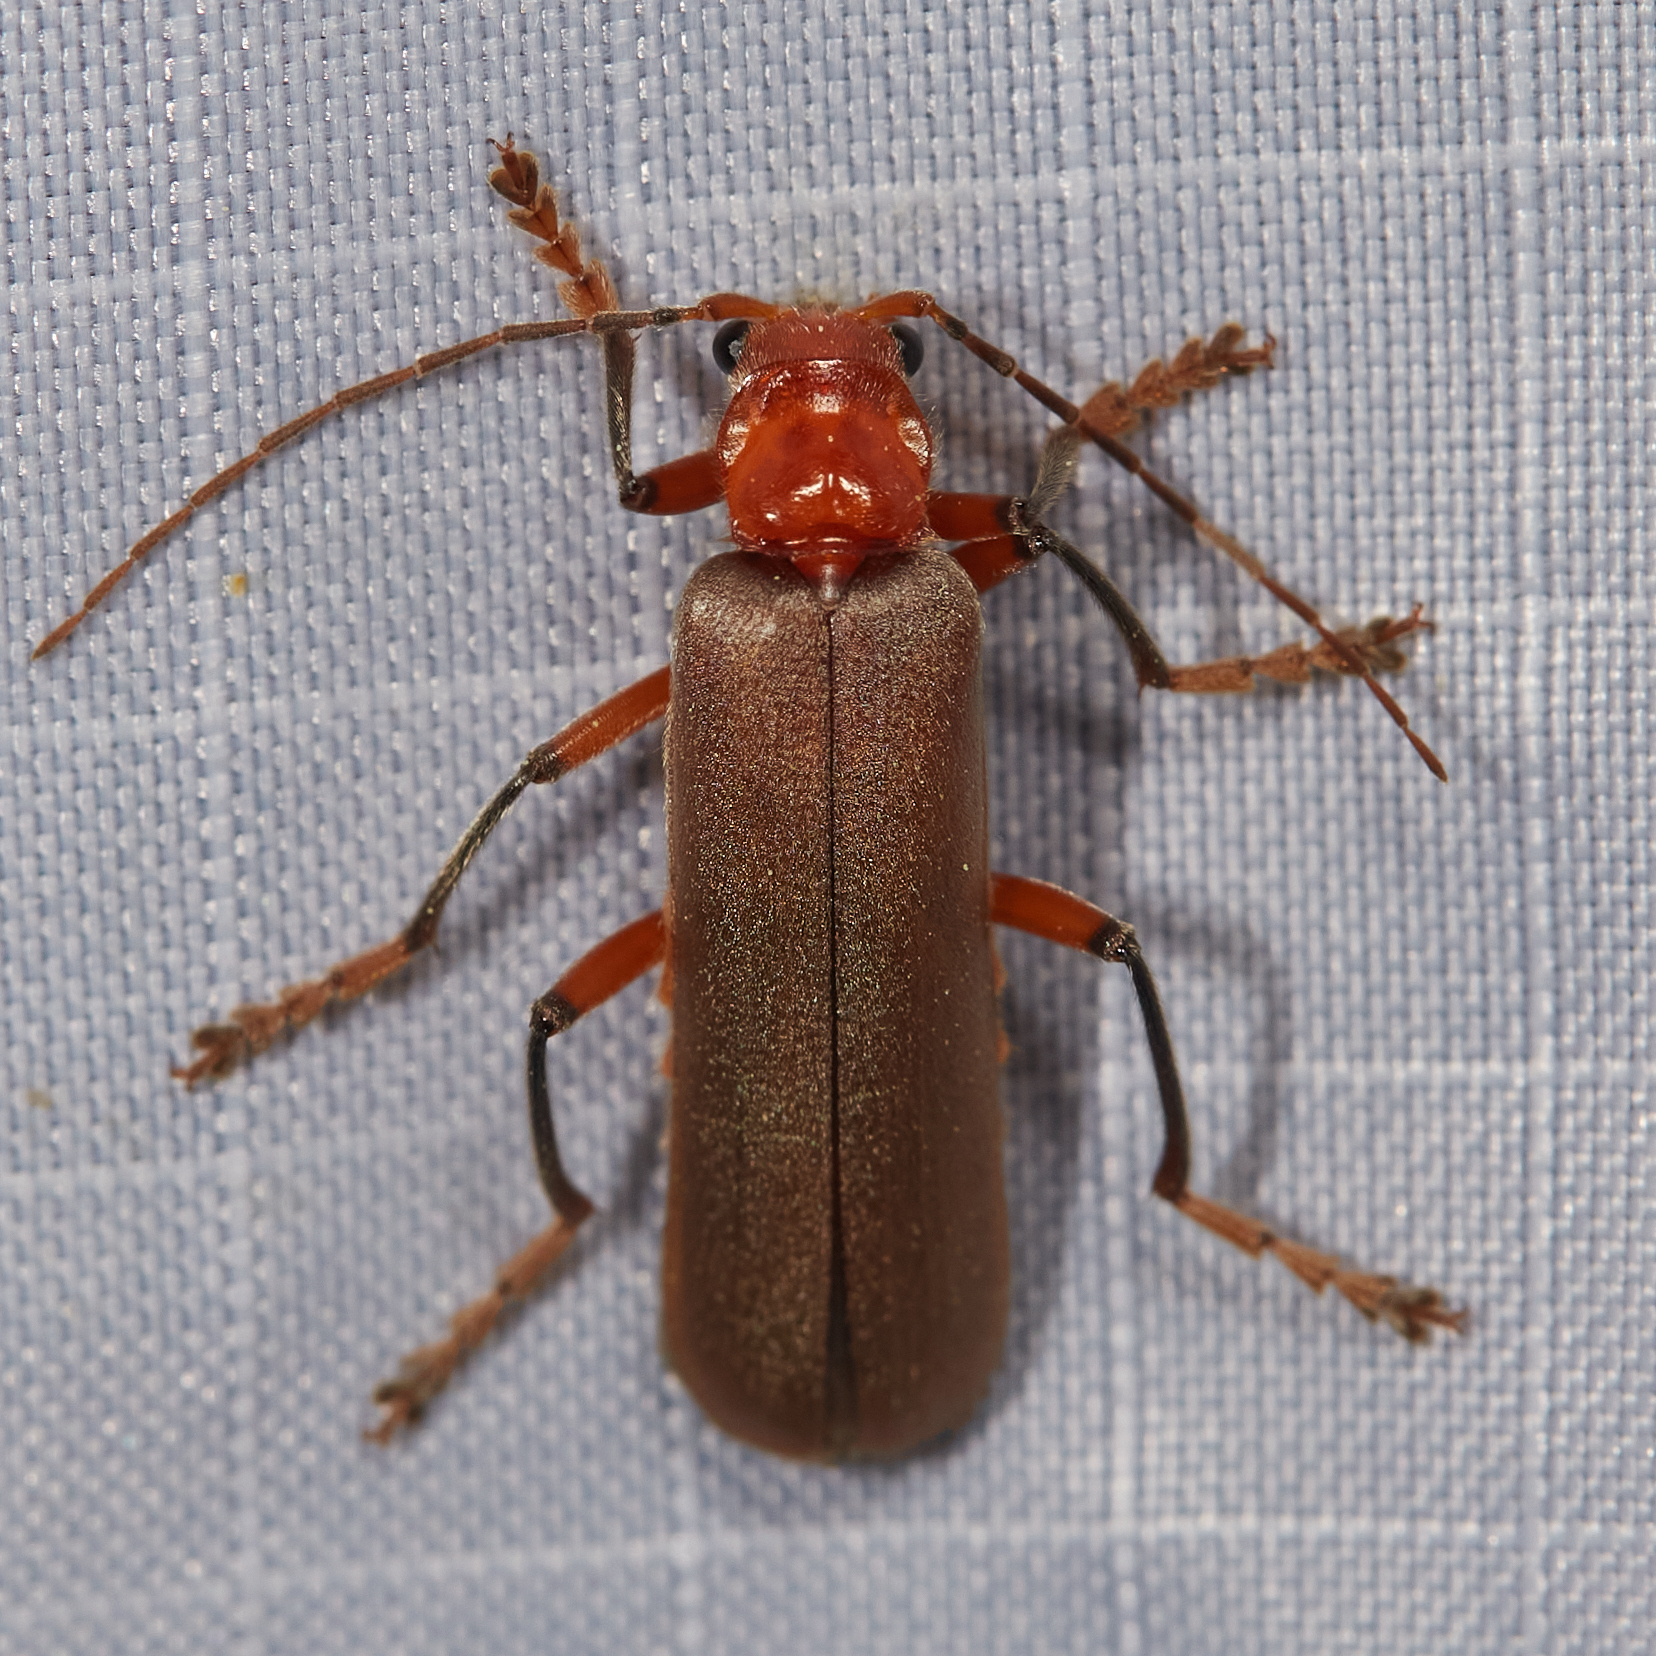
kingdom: Animalia
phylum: Arthropoda
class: Insecta
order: Coleoptera
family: Cantharidae
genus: Pacificanthia
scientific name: Pacificanthia consors
